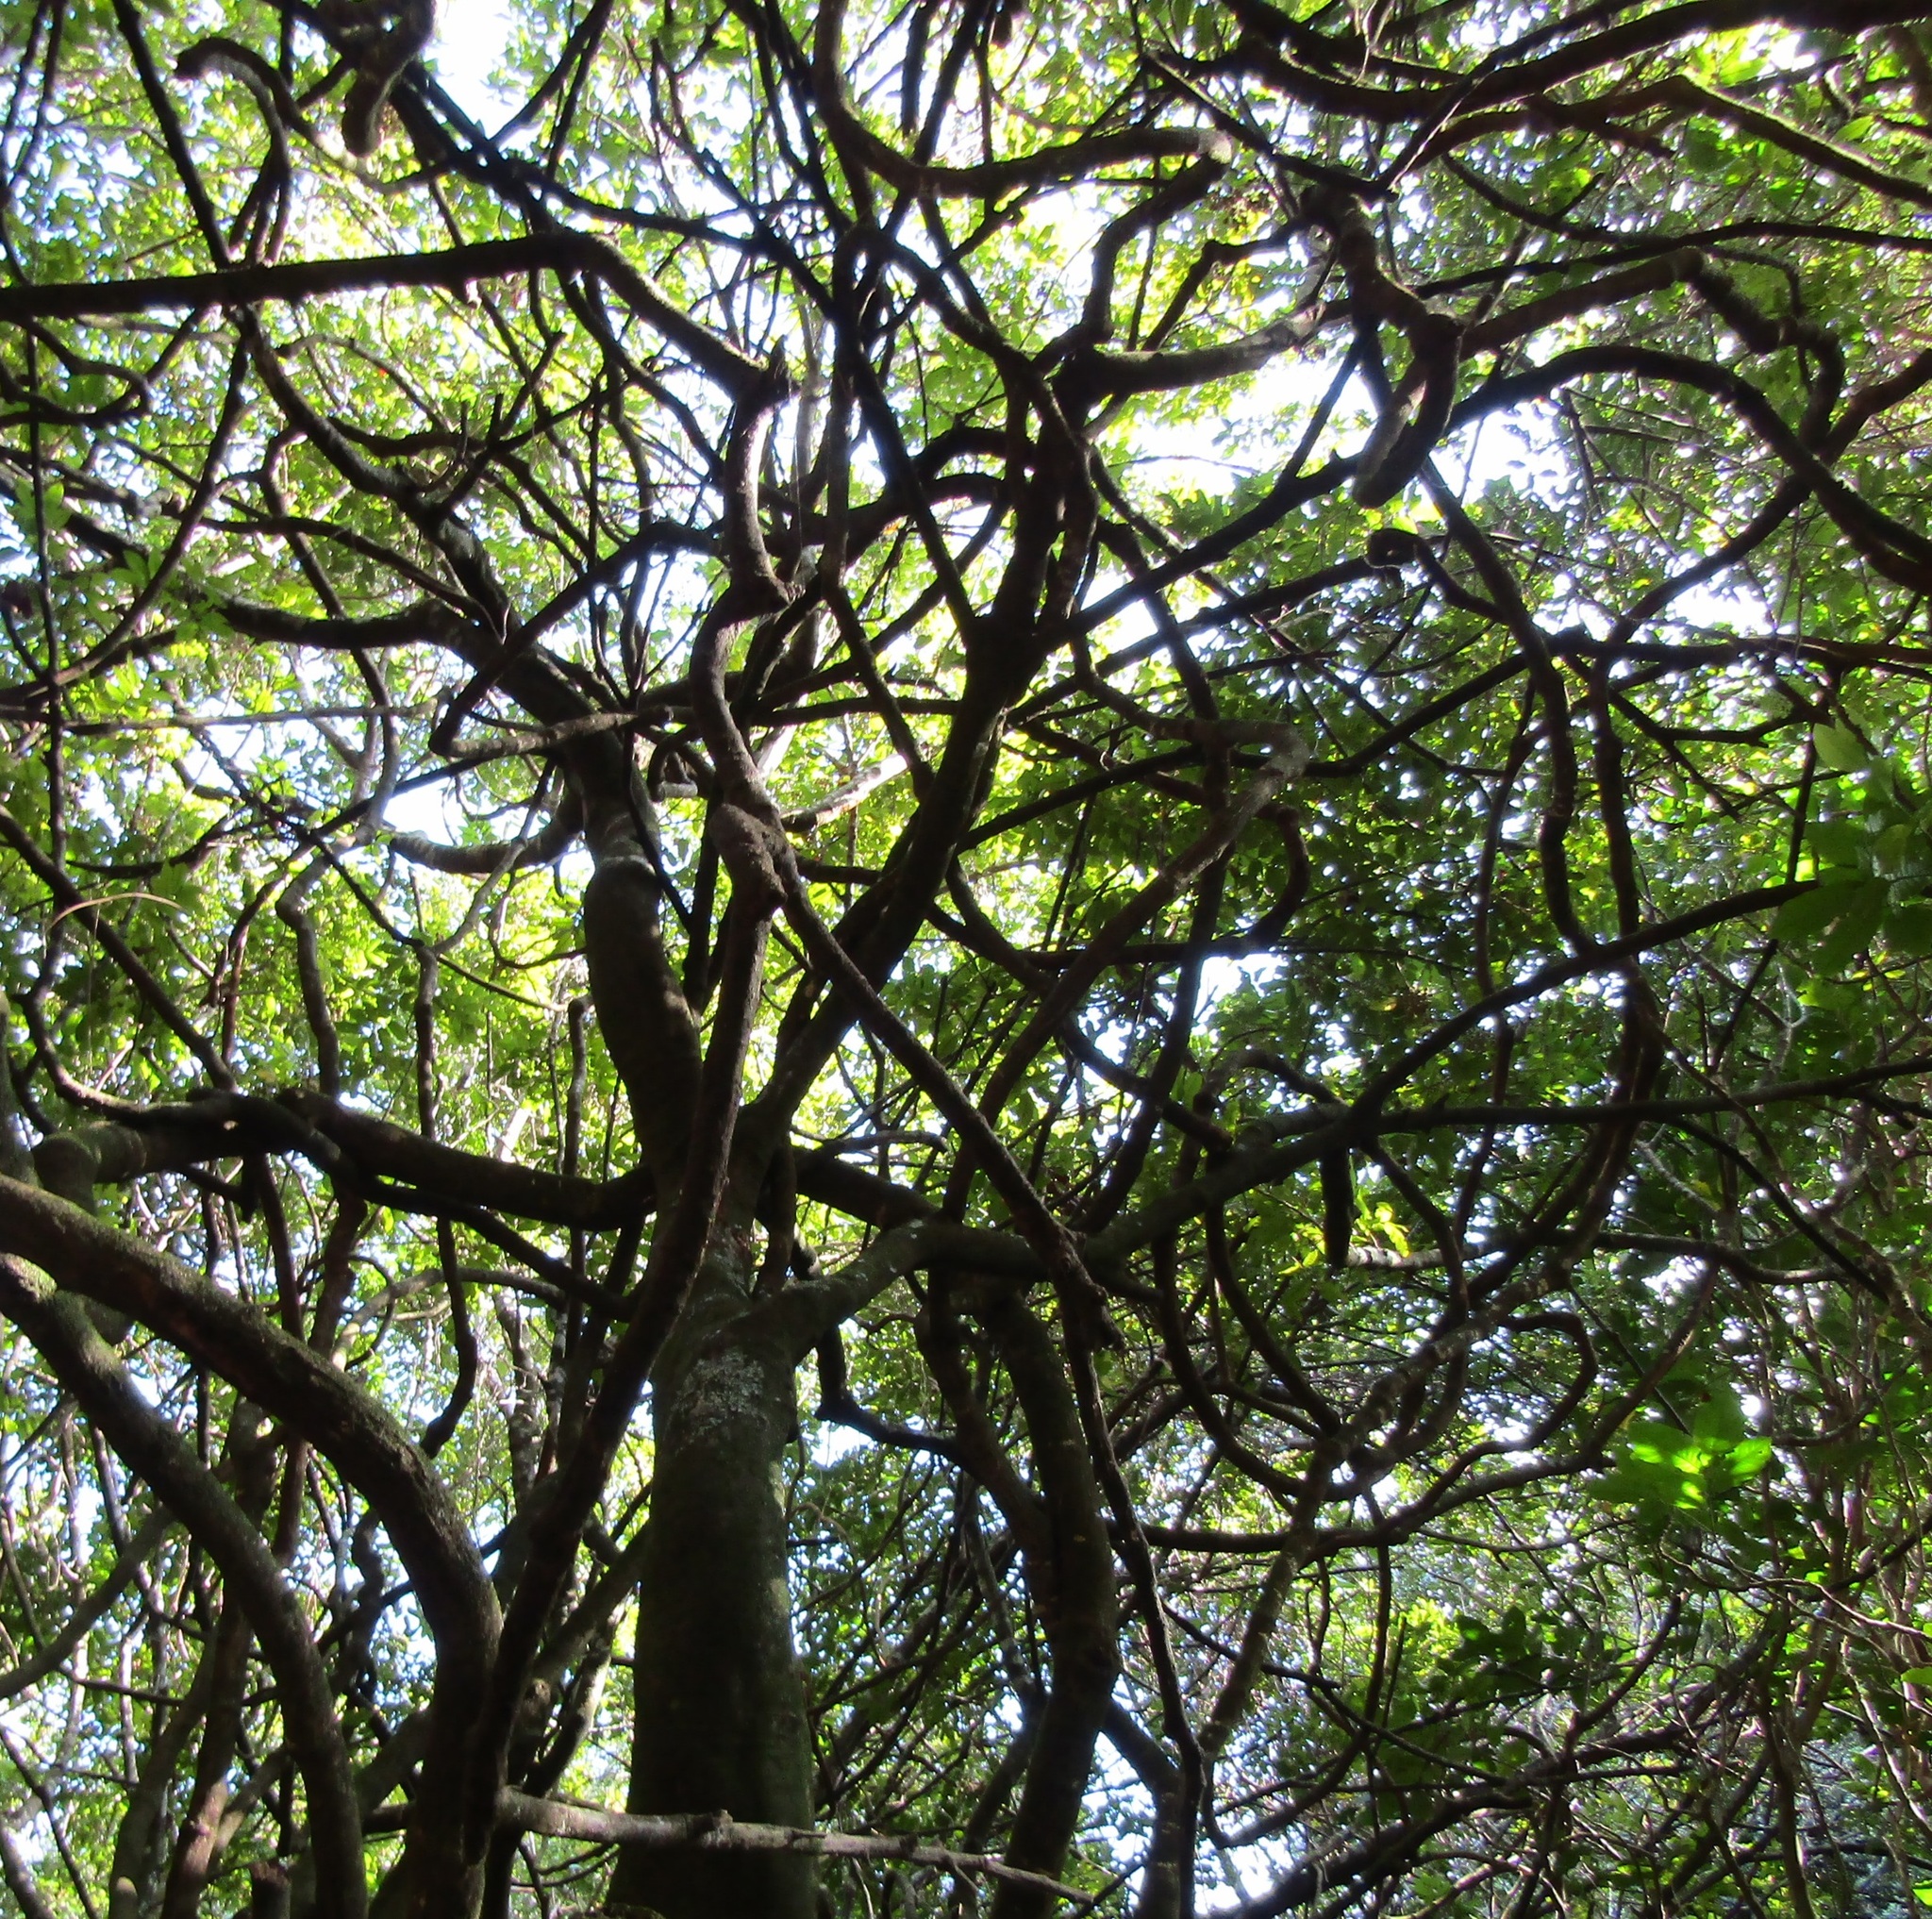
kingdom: Plantae
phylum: Tracheophyta
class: Magnoliopsida
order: Malpighiales
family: Passifloraceae
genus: Passiflora
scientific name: Passiflora tetrandra
